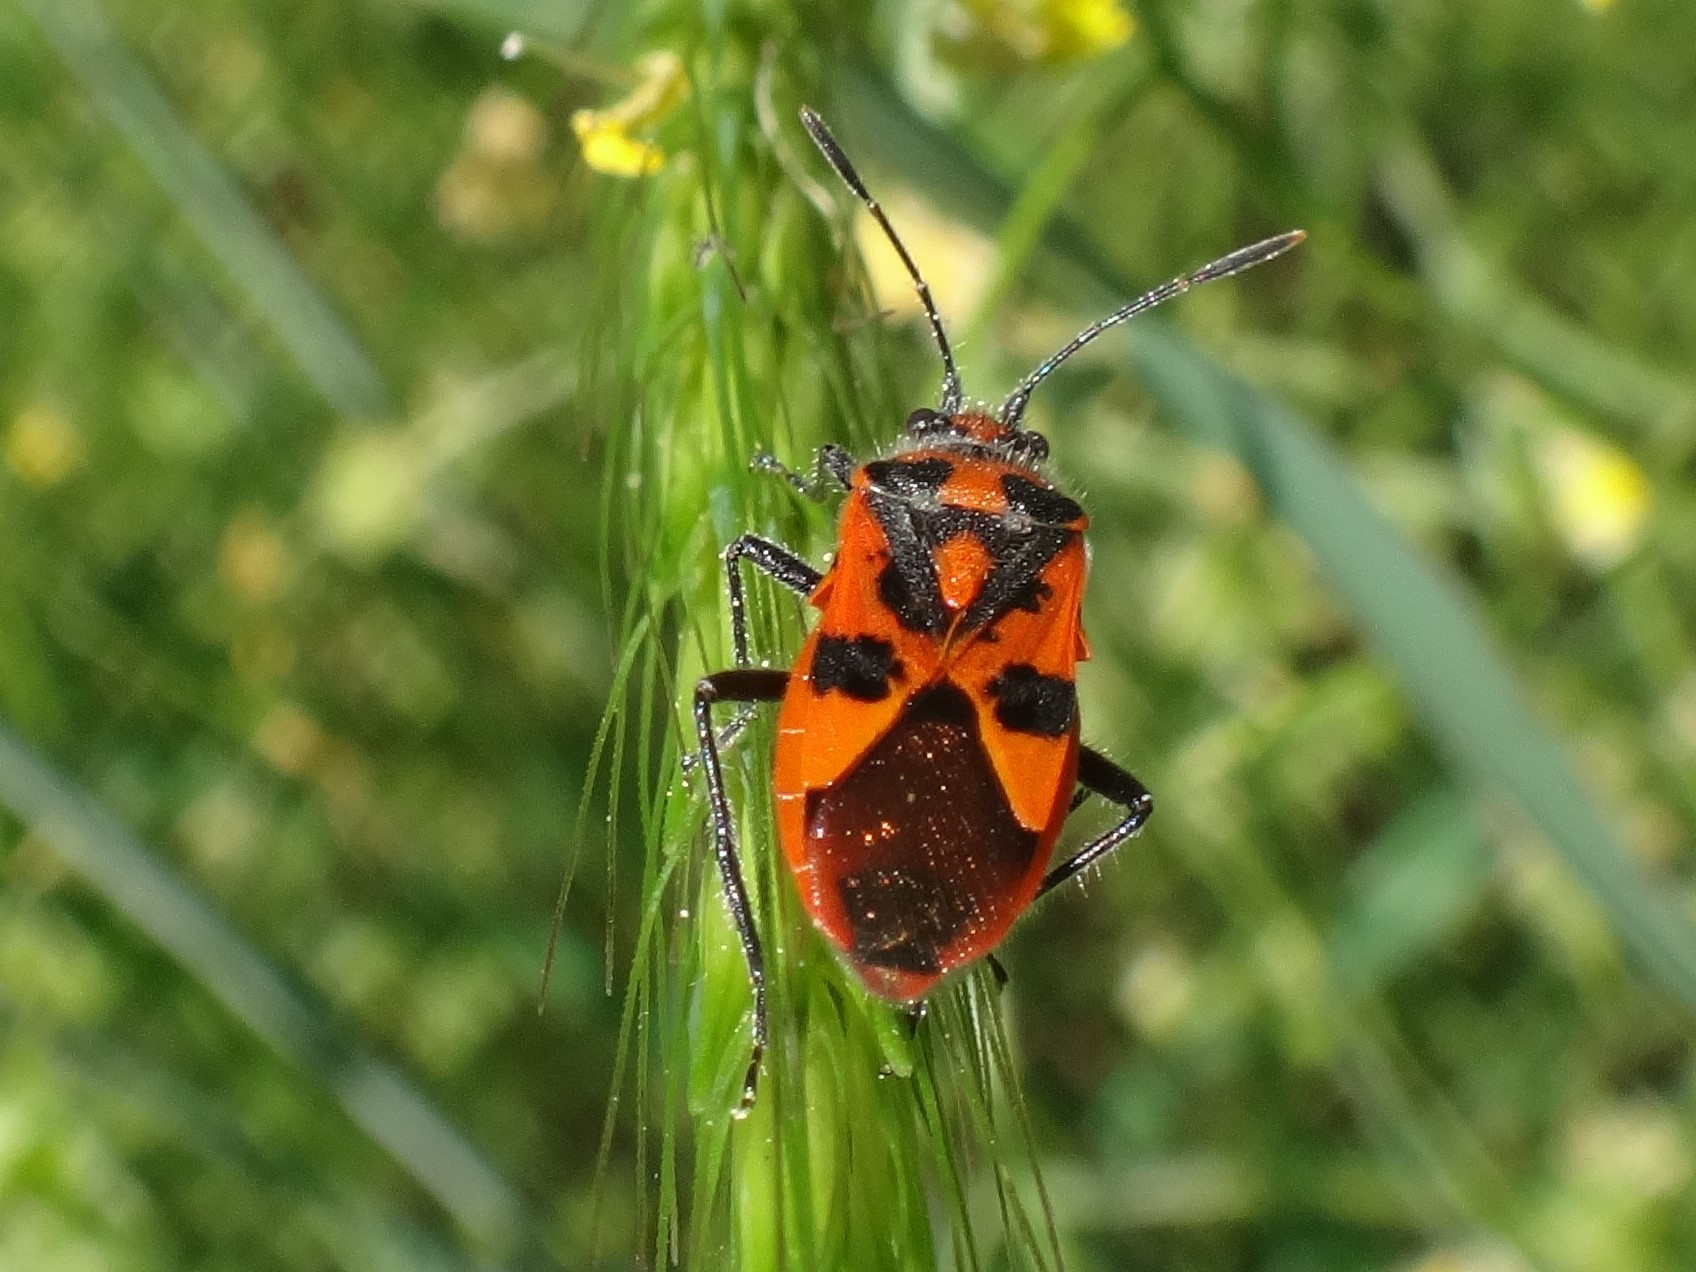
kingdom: Animalia
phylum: Arthropoda
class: Insecta
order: Hemiptera
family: Rhopalidae
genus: Corizus
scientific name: Corizus hyoscyami
